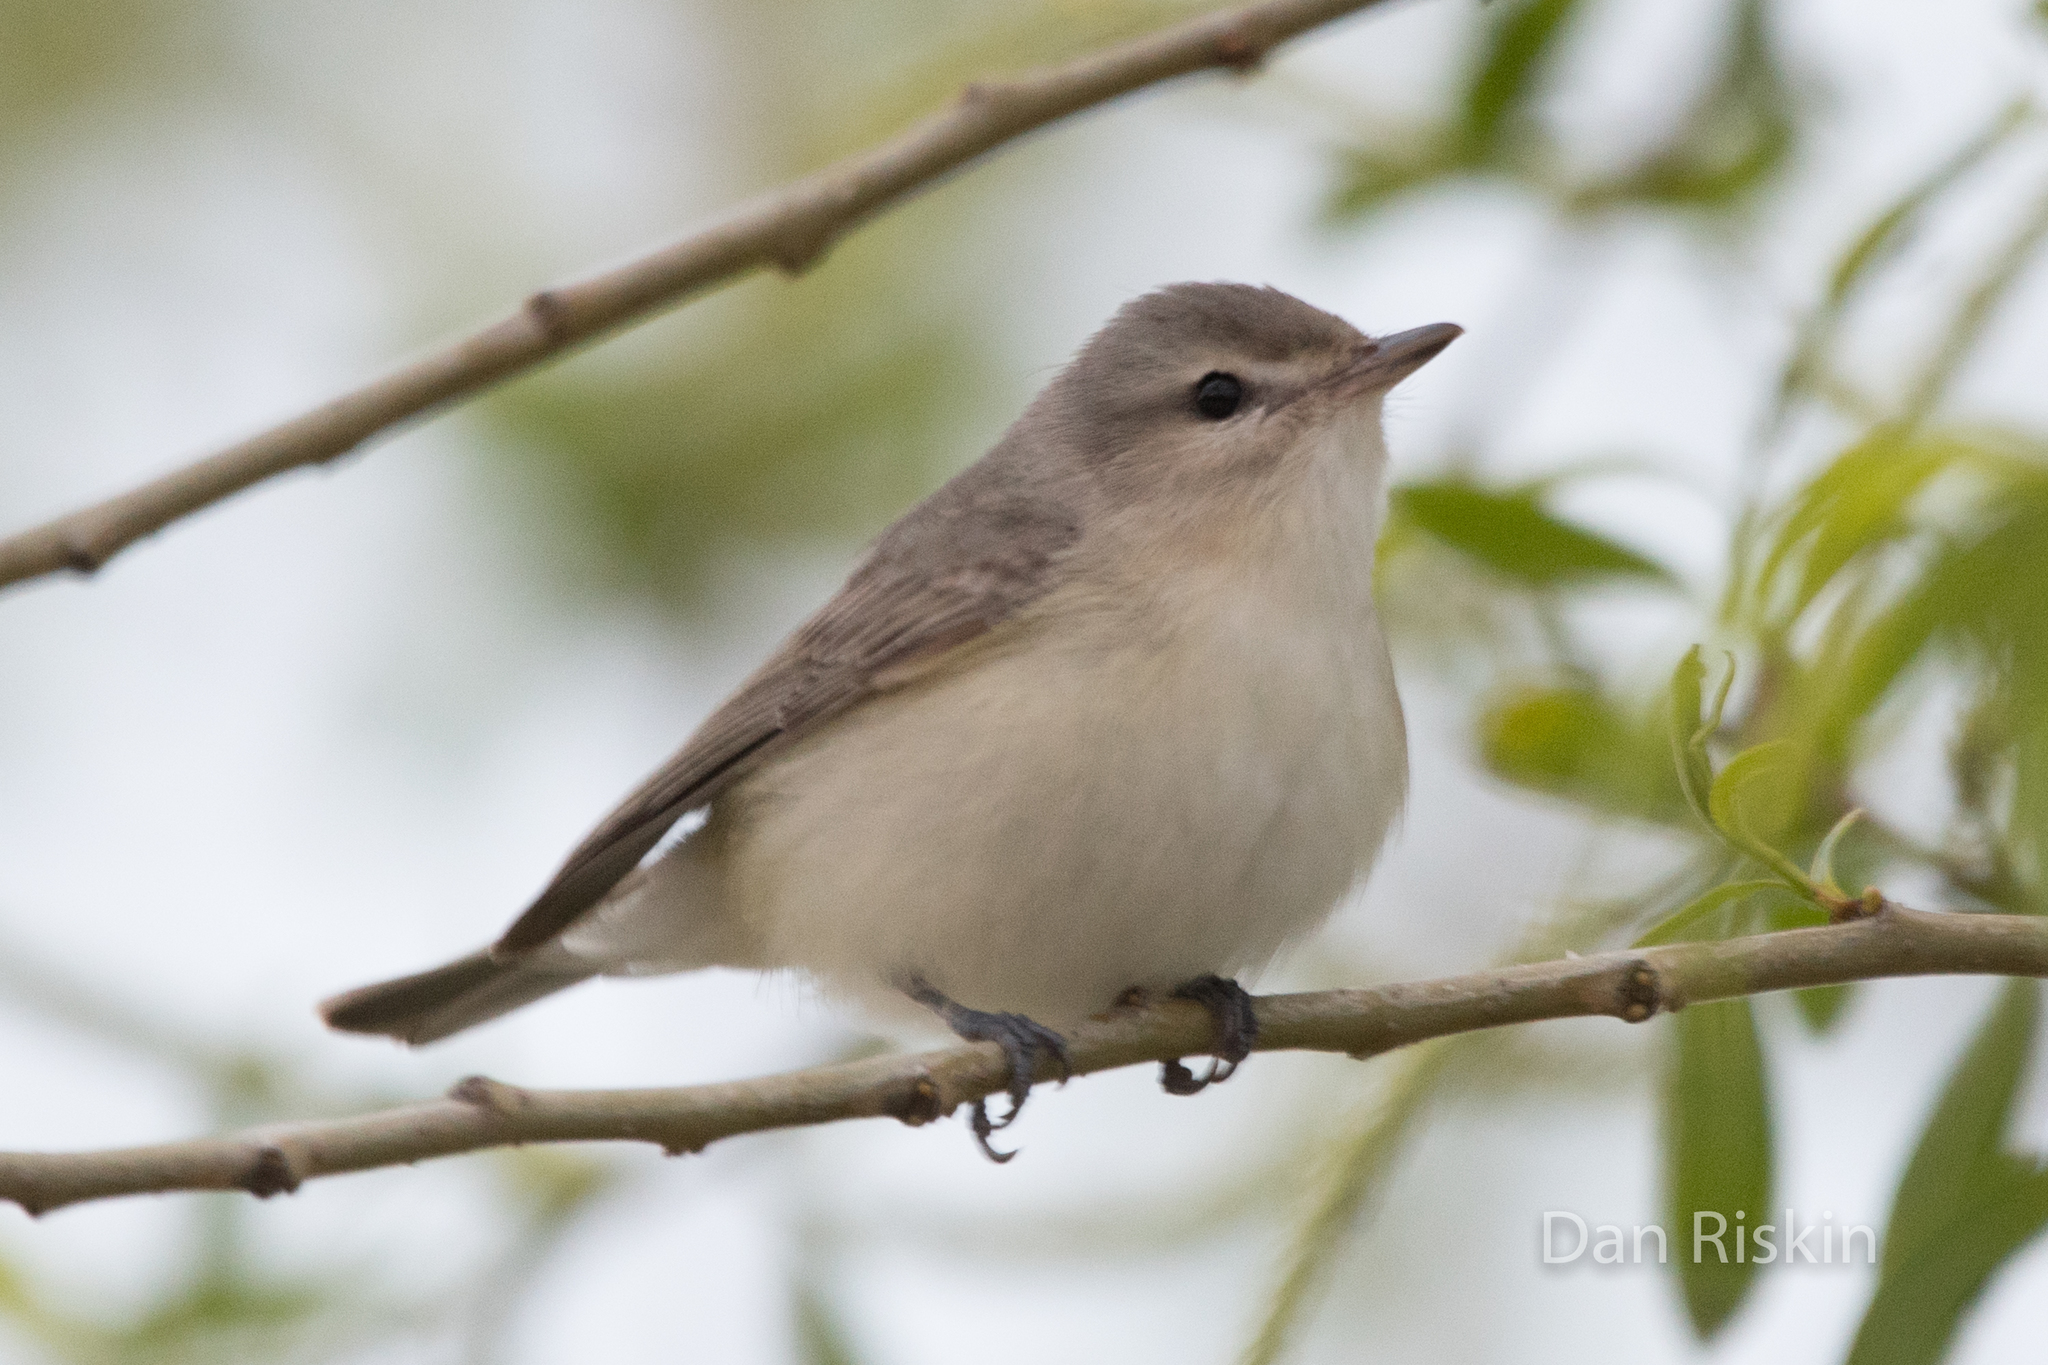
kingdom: Animalia
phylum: Chordata
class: Aves
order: Passeriformes
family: Vireonidae
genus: Vireo
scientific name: Vireo gilvus
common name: Warbling vireo
